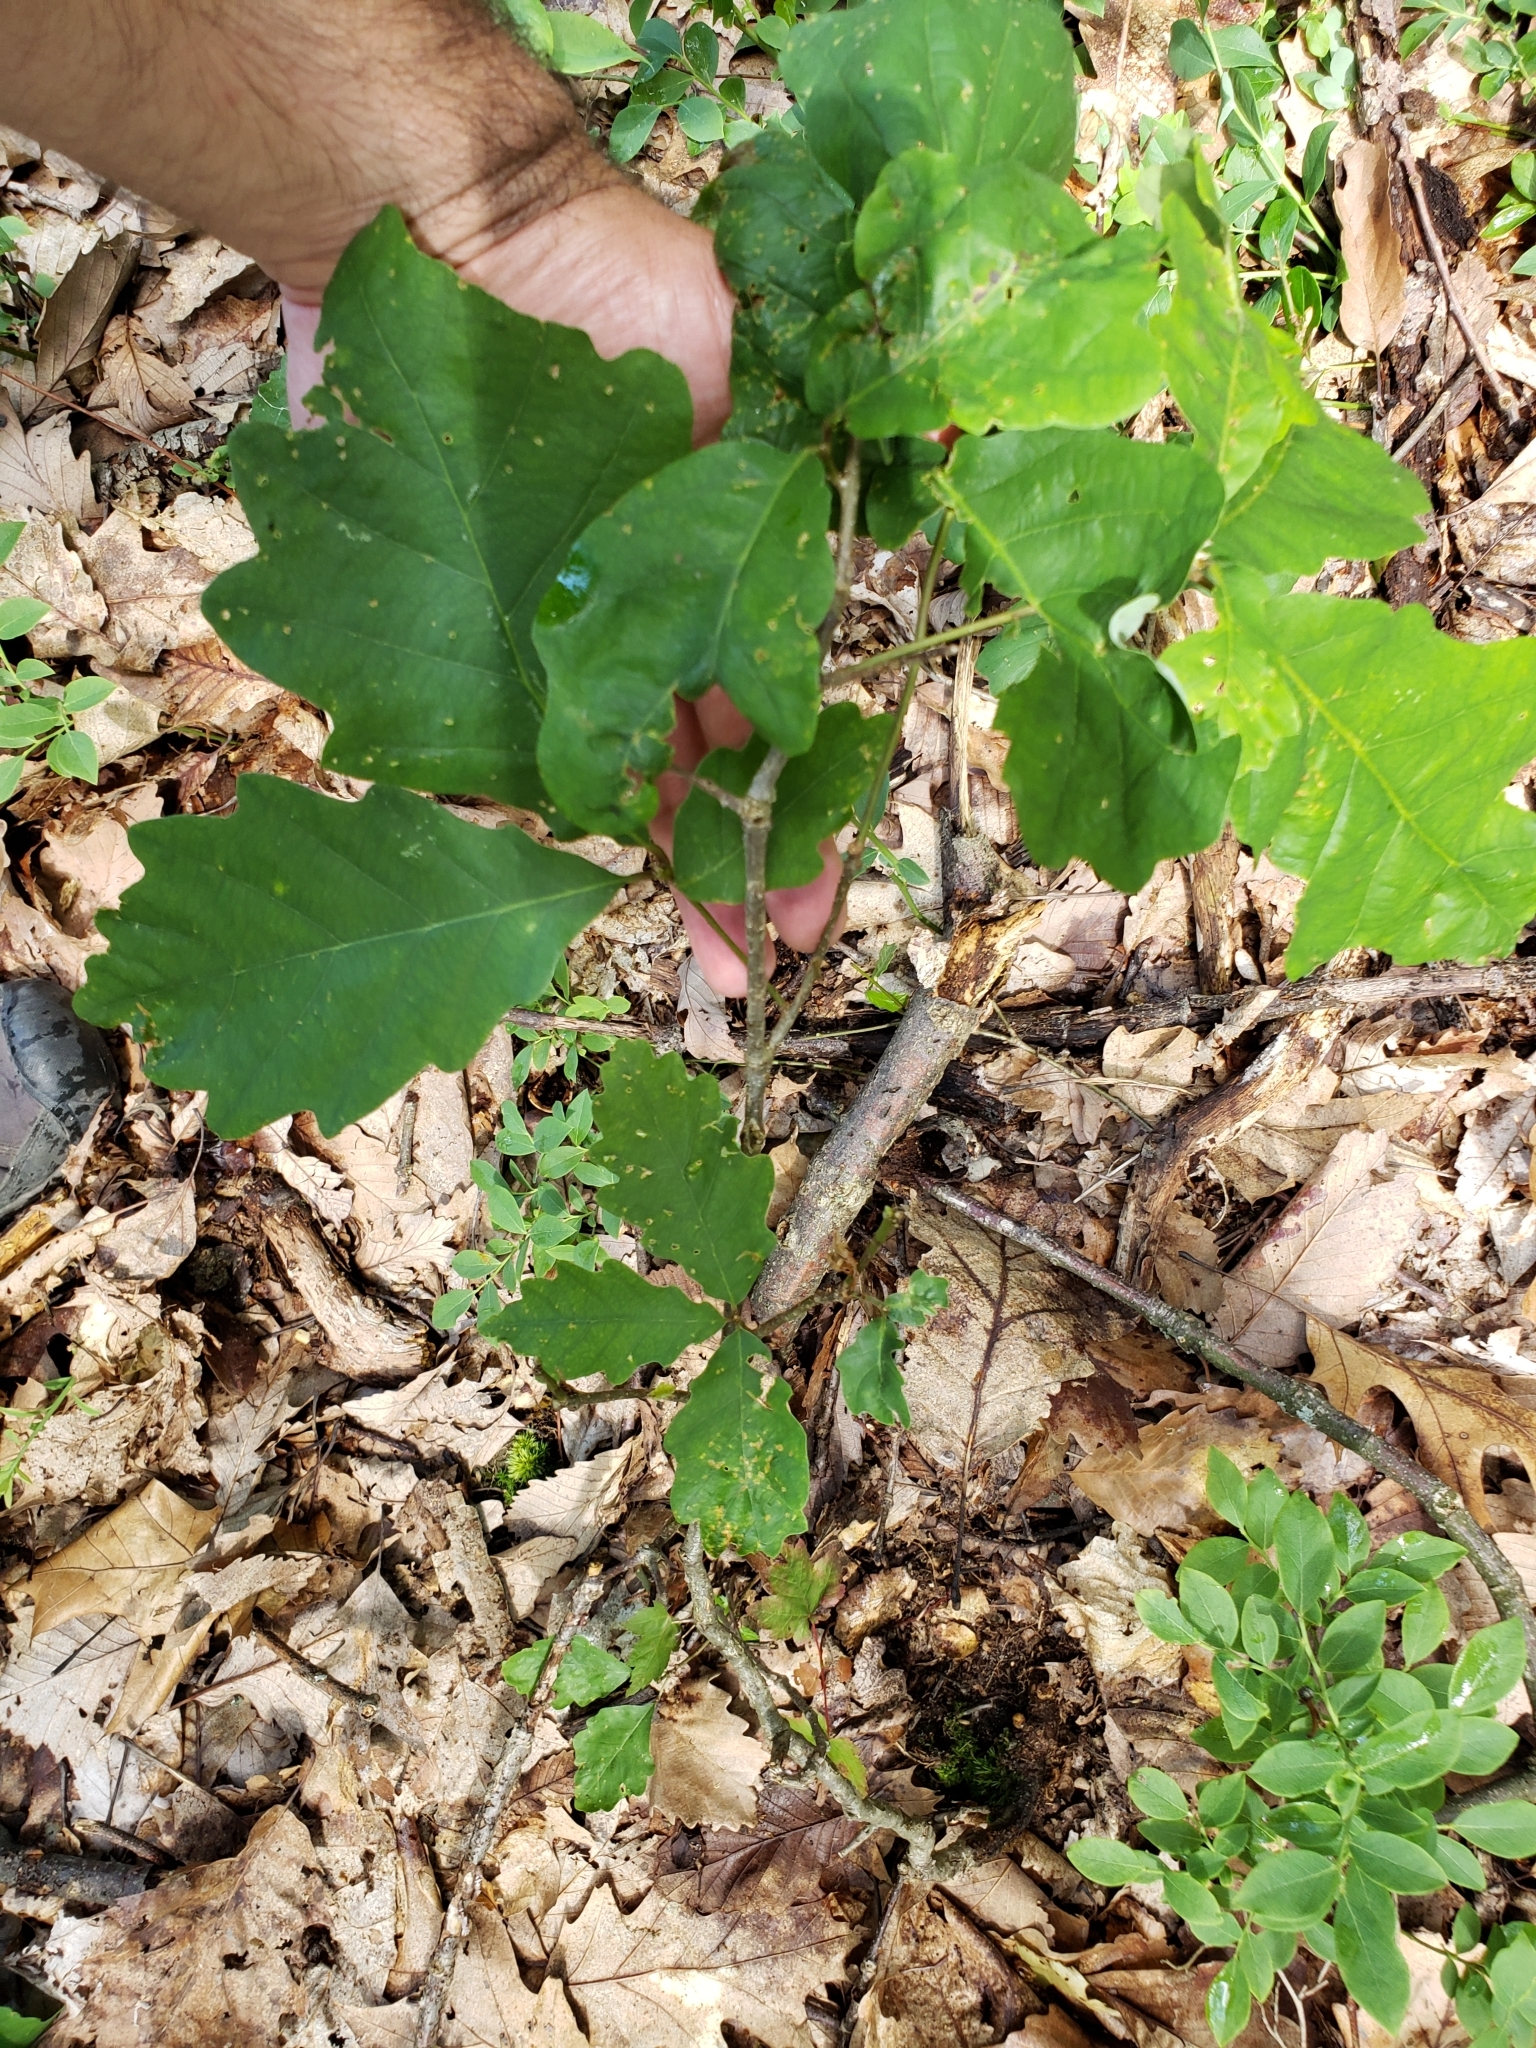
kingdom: Animalia
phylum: Arthropoda
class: Insecta
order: Hymenoptera
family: Cynipidae
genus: Holocynips
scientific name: Holocynips
